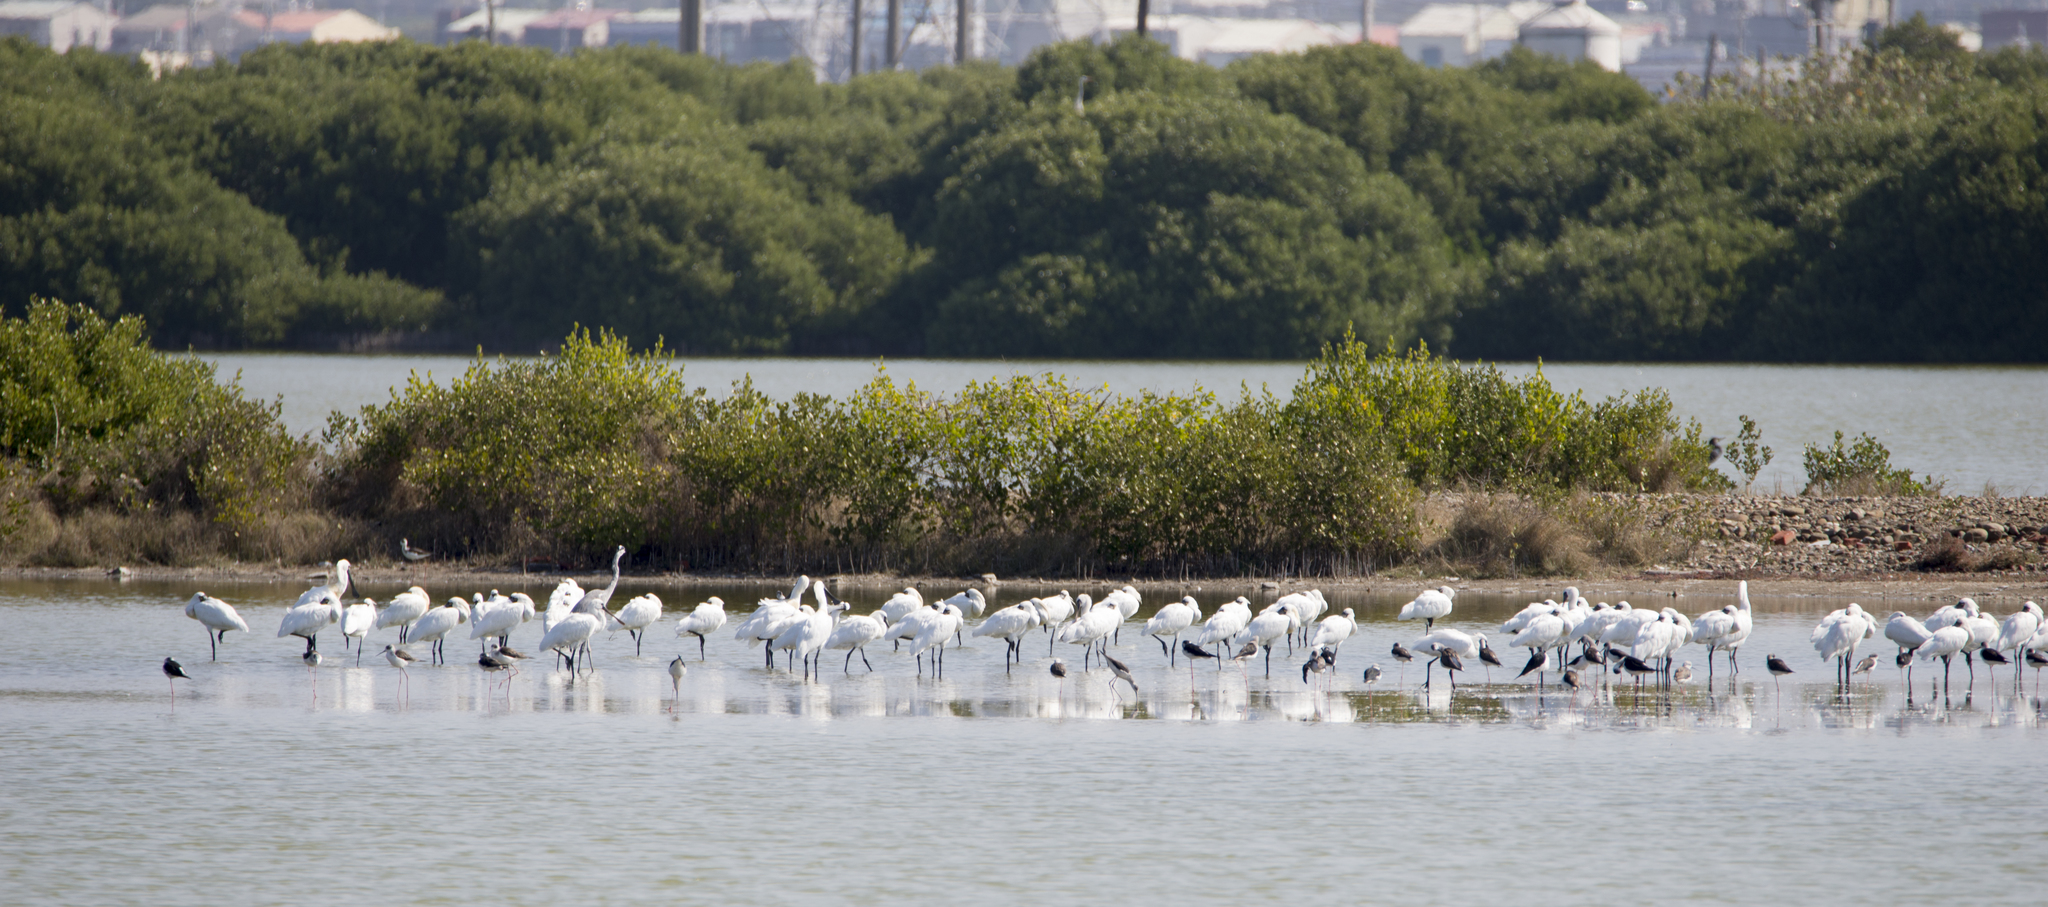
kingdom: Animalia
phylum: Chordata
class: Aves
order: Pelecaniformes
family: Threskiornithidae
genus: Platalea
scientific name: Platalea minor
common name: Black-faced spoonbill
